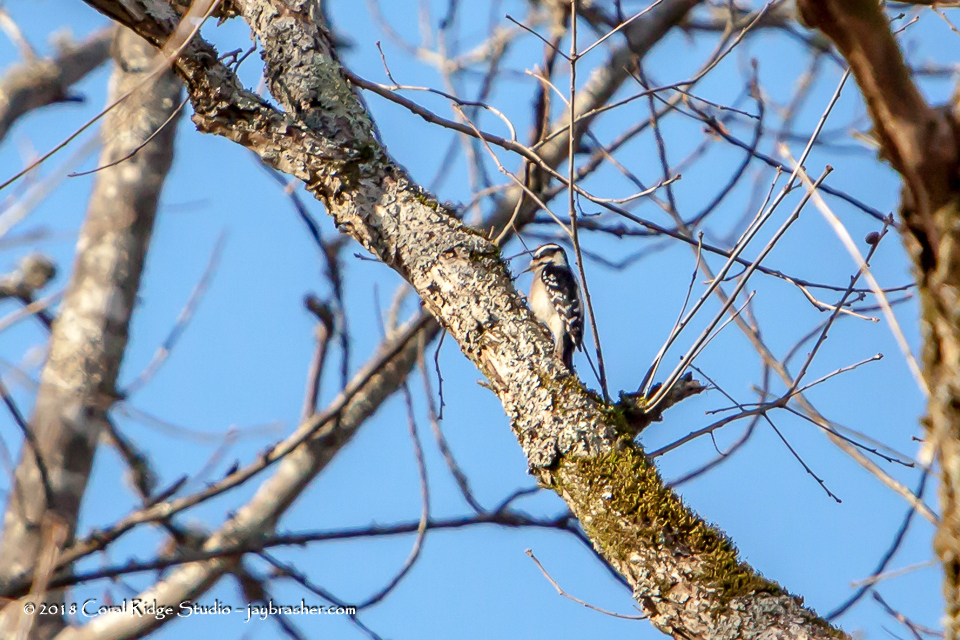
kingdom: Animalia
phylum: Chordata
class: Aves
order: Piciformes
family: Picidae
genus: Dryobates
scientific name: Dryobates pubescens
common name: Downy woodpecker
